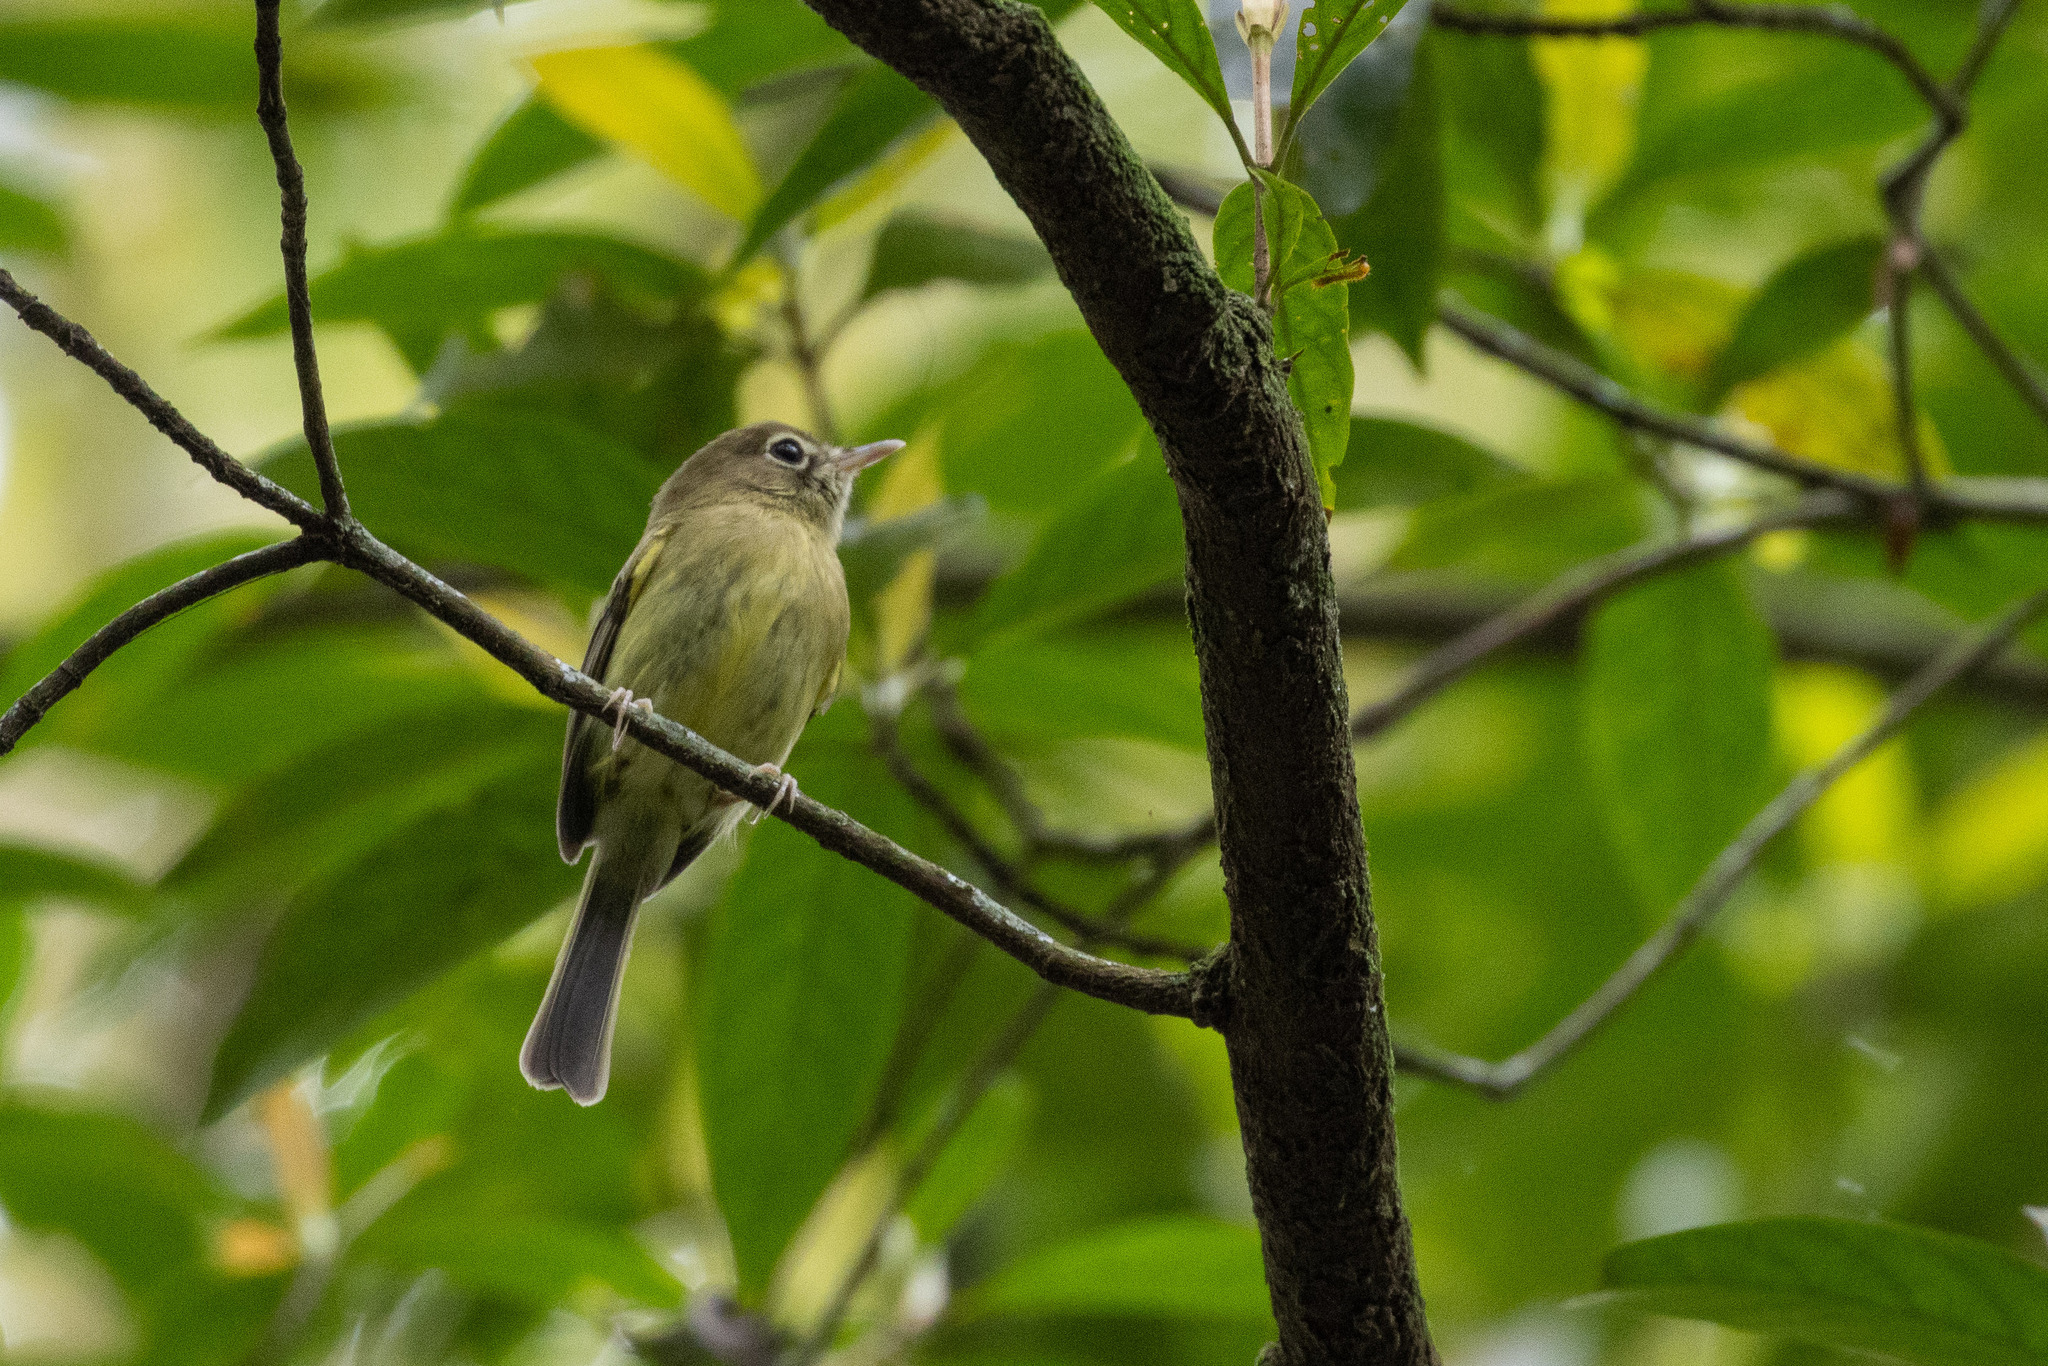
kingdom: Animalia
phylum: Chordata
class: Aves
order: Passeriformes
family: Tyrannidae
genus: Hemitriccus
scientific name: Hemitriccus orbitatus
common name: Eye-ringed tody-tyrant
